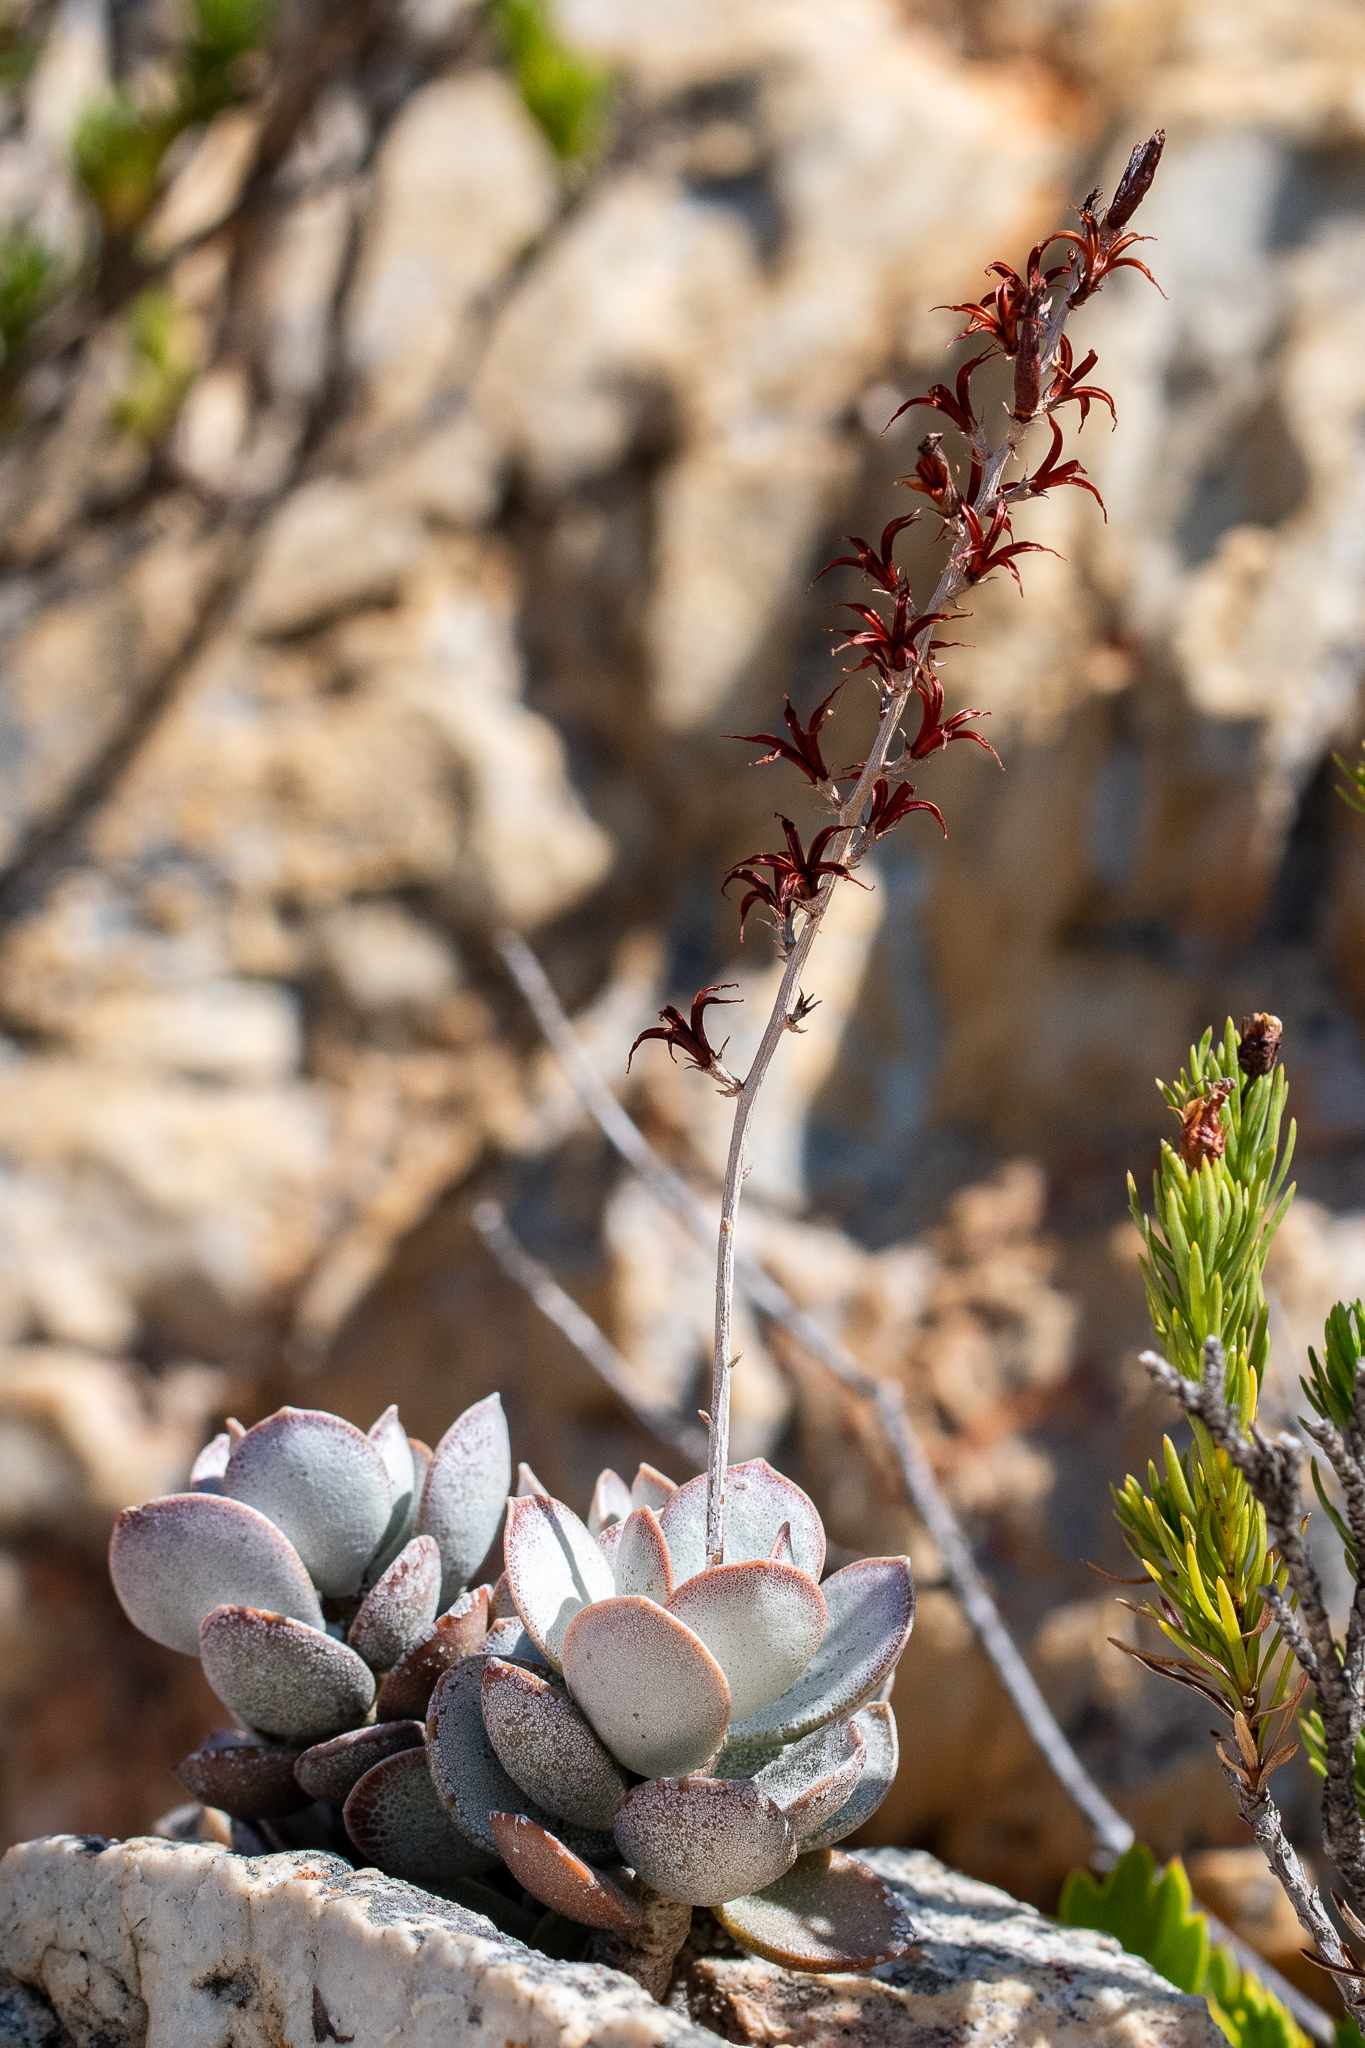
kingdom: Plantae
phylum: Tracheophyta
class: Magnoliopsida
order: Saxifragales
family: Crassulaceae
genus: Adromischus
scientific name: Adromischus hemisphaericus
